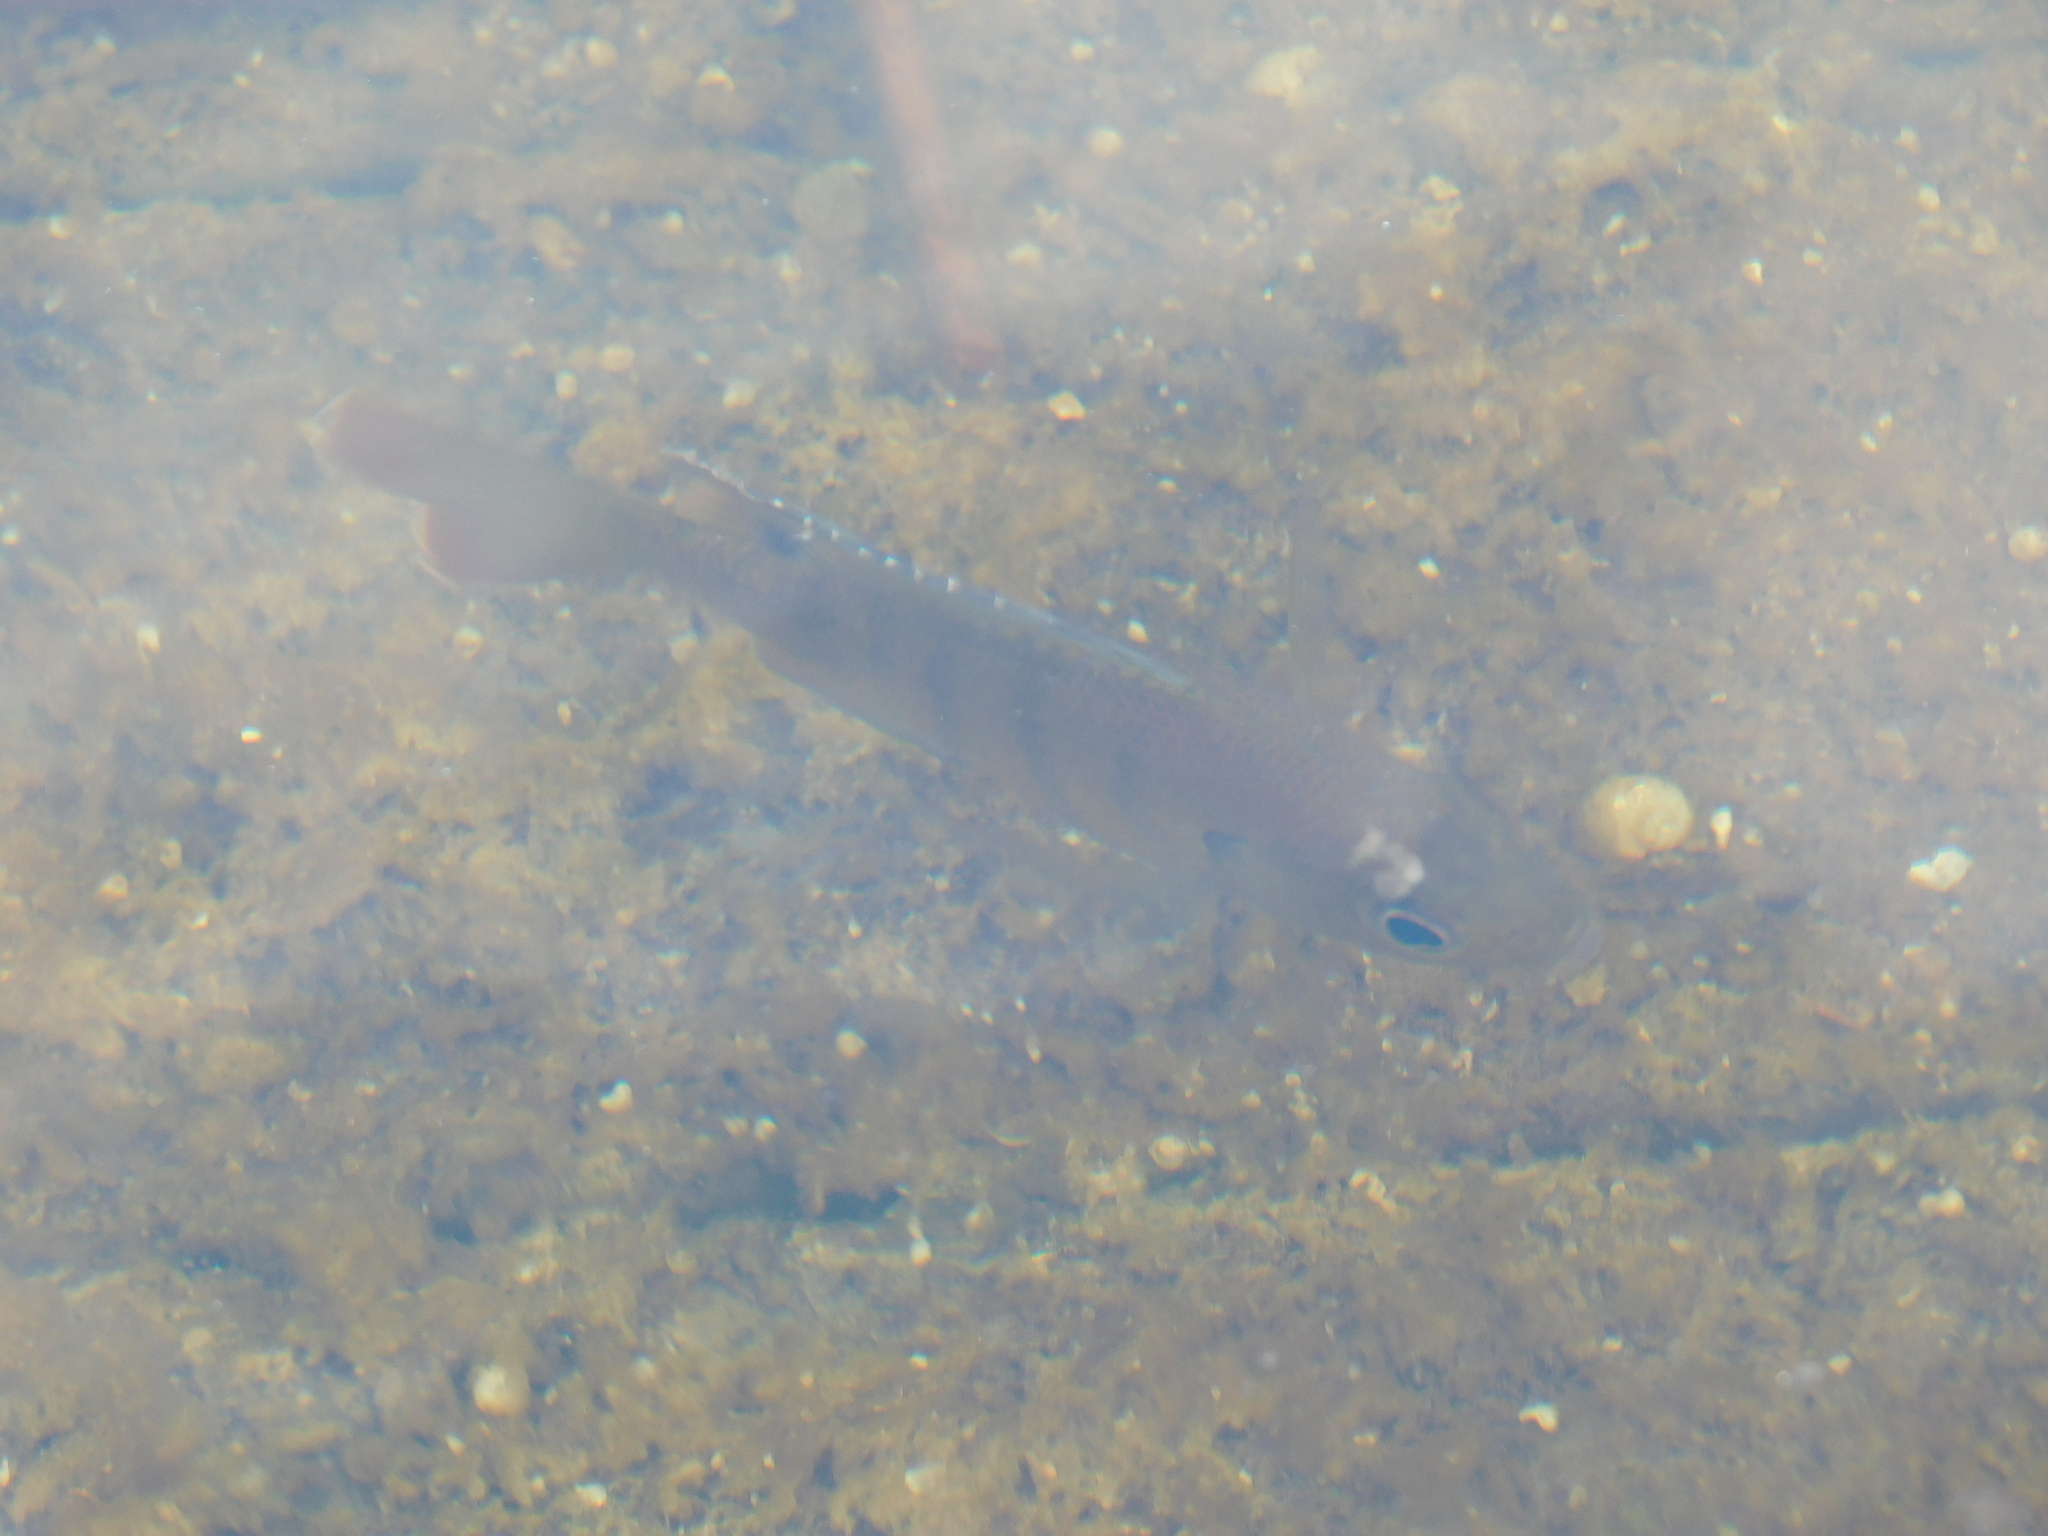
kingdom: Animalia
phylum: Chordata
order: Perciformes
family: Centrarchidae
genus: Lepomis
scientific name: Lepomis macrochirus
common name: Bluegill
